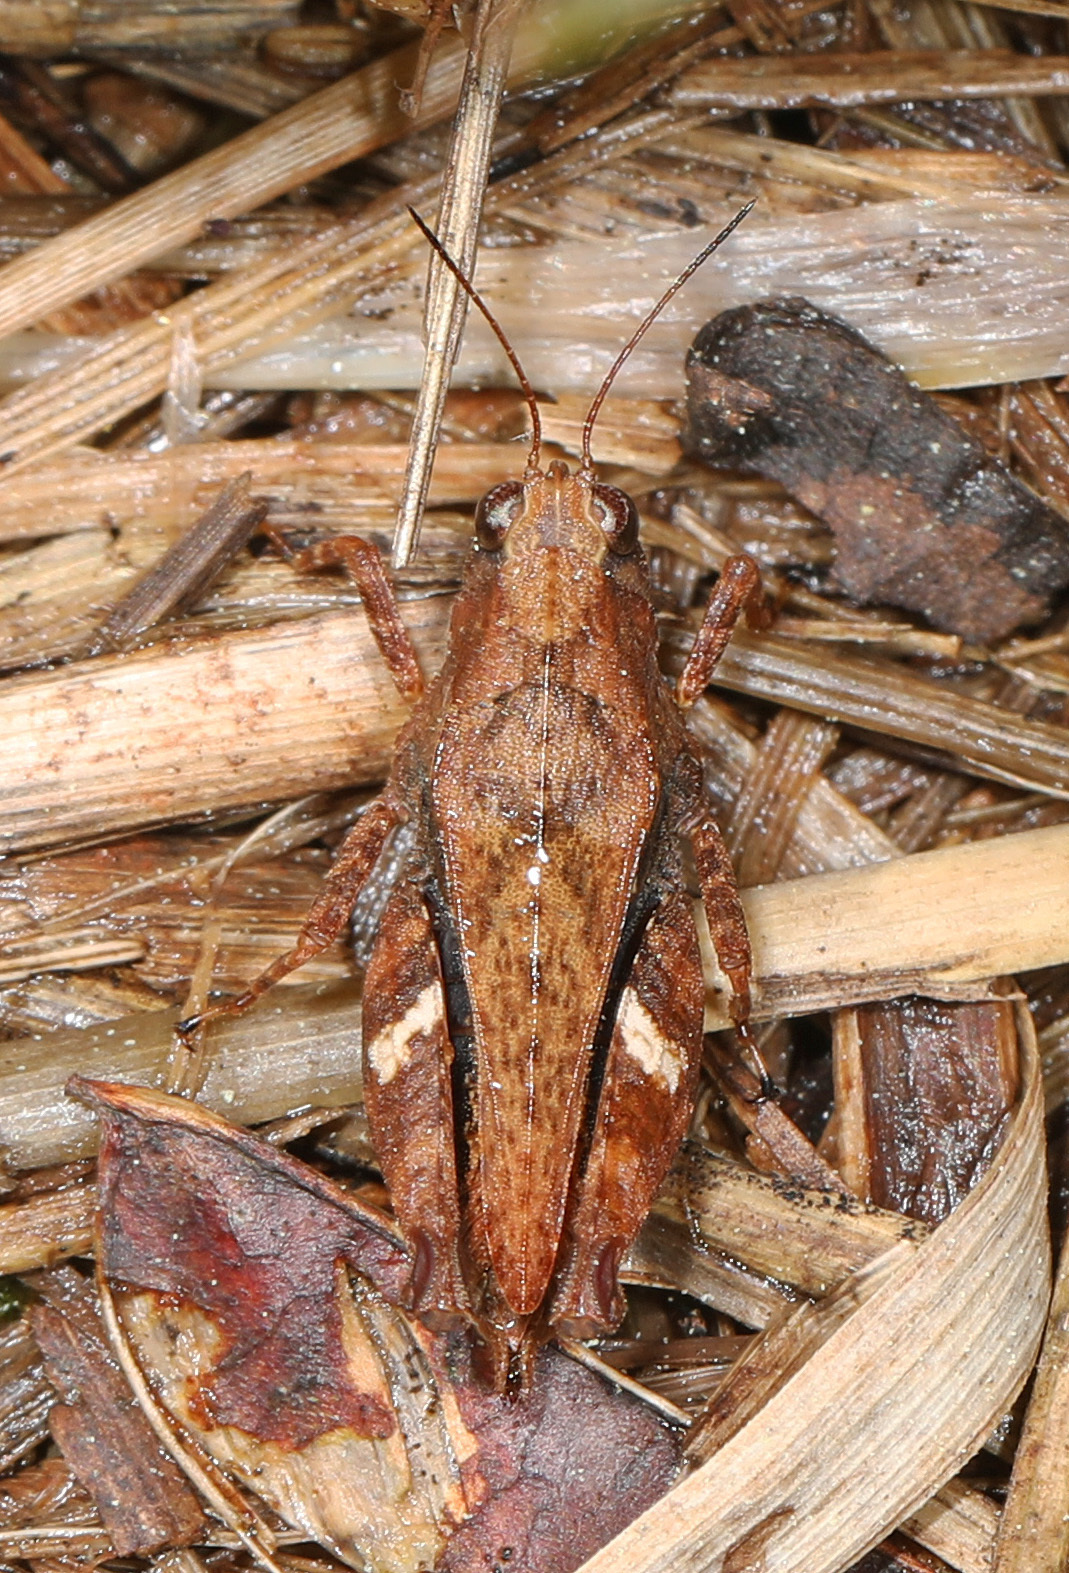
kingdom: Animalia
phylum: Arthropoda
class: Insecta
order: Orthoptera
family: Tetrigidae
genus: Tettigidea
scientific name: Tettigidea laterale
